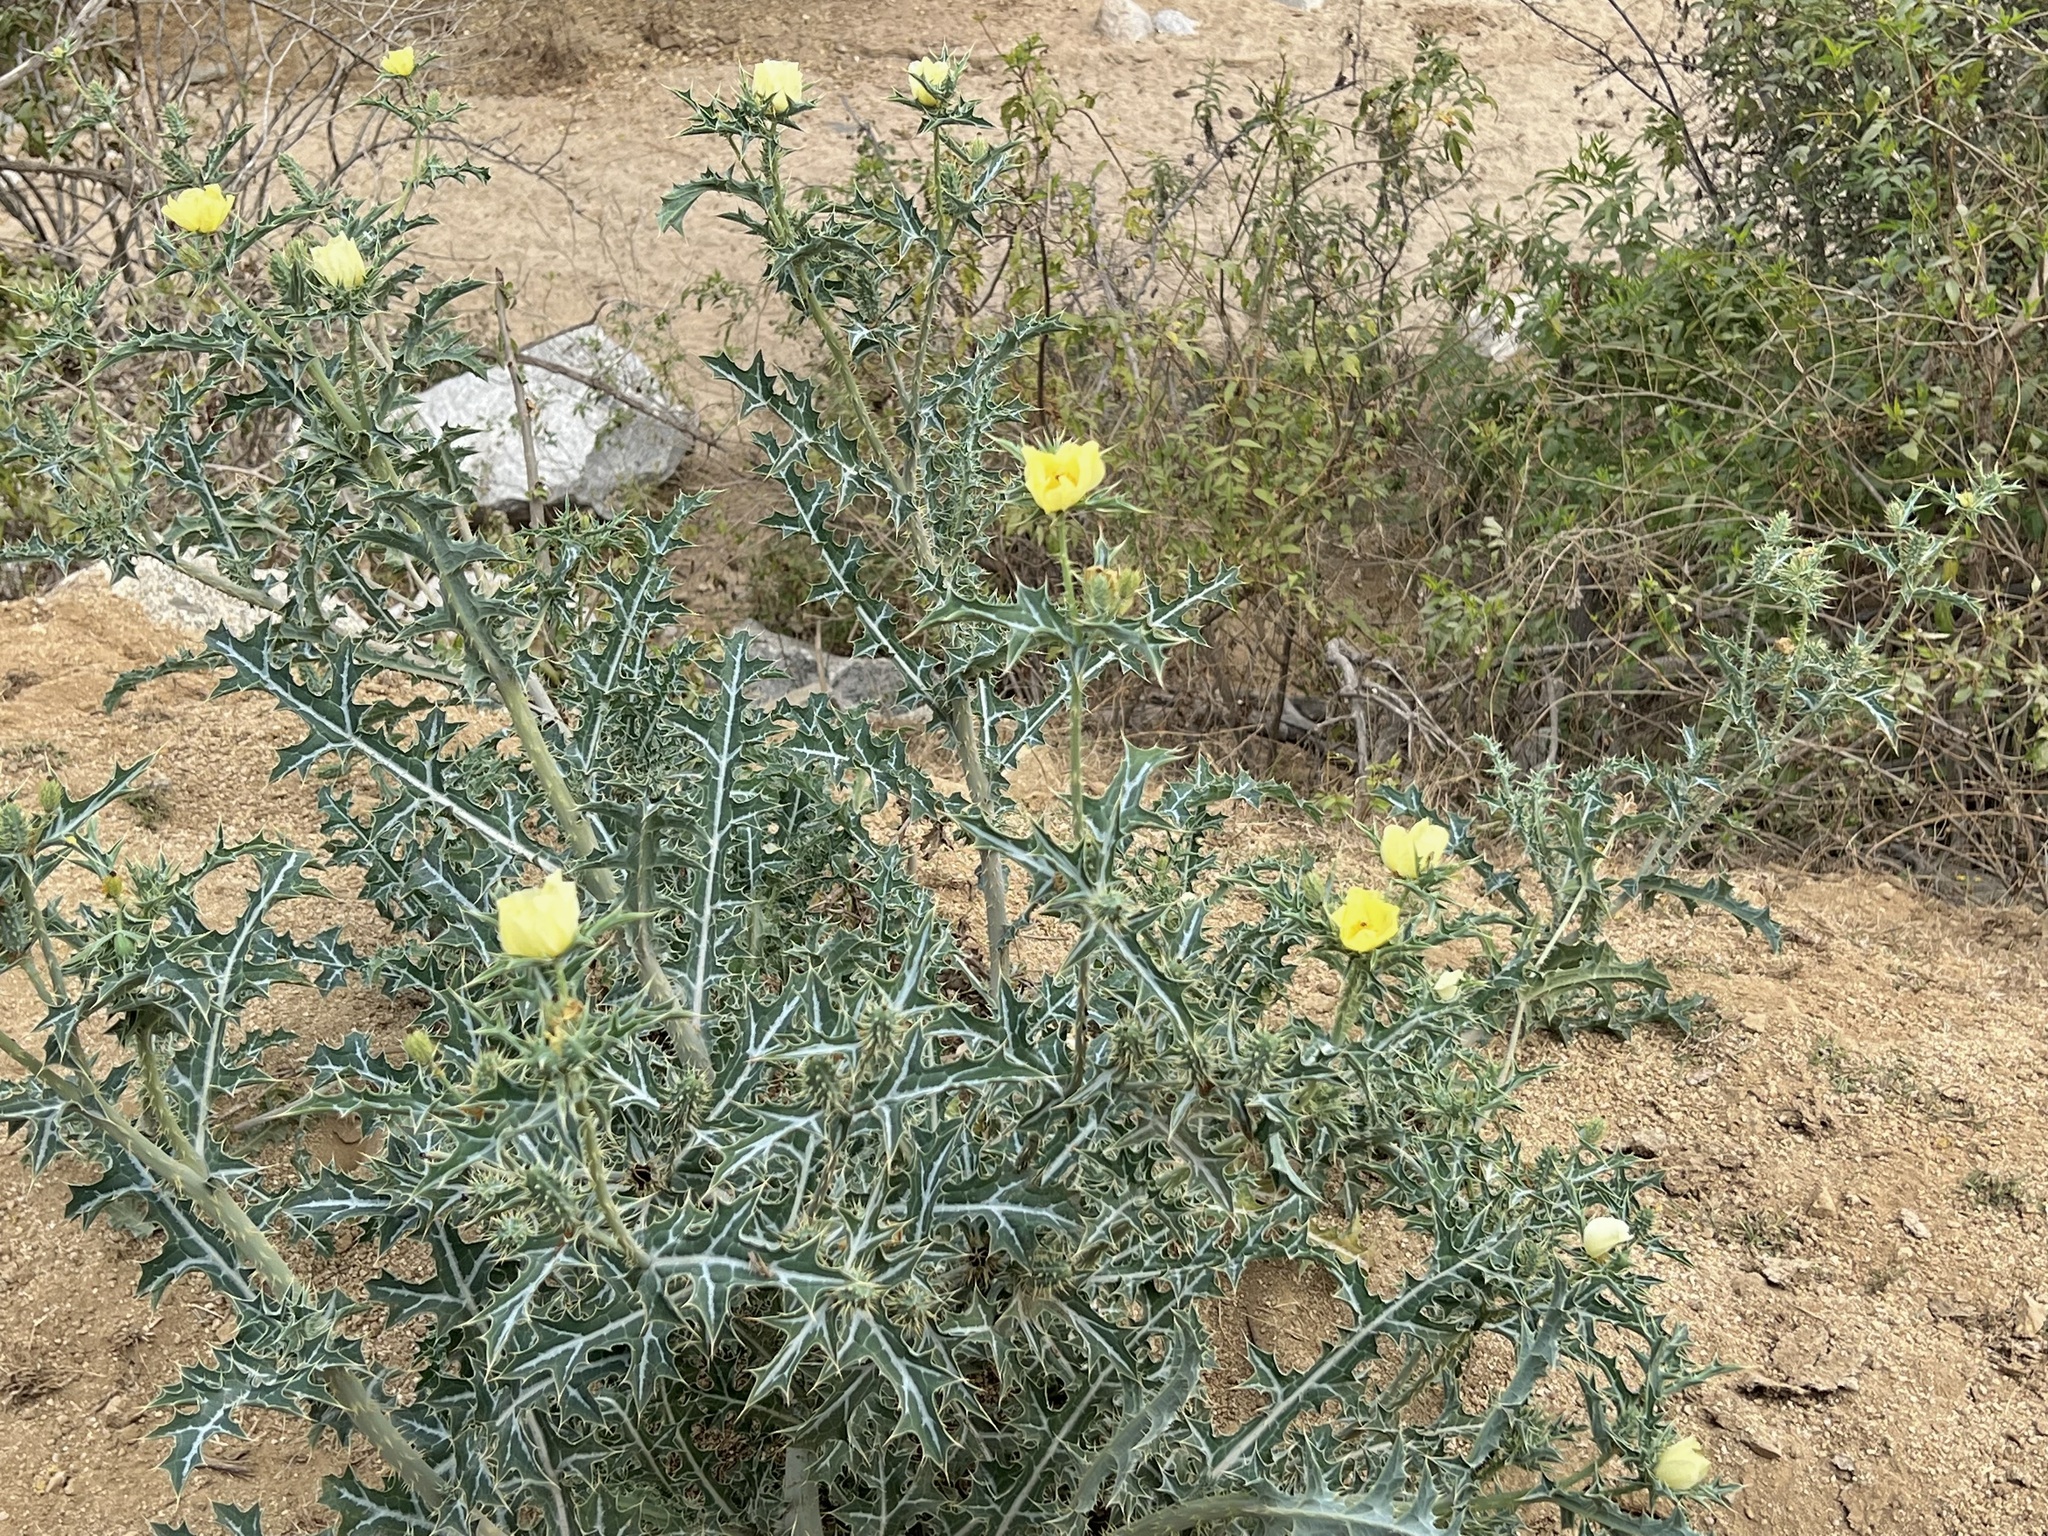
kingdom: Plantae
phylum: Tracheophyta
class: Magnoliopsida
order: Ranunculales
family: Papaveraceae
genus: Argemone
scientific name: Argemone mexicana
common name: Mexican poppy
